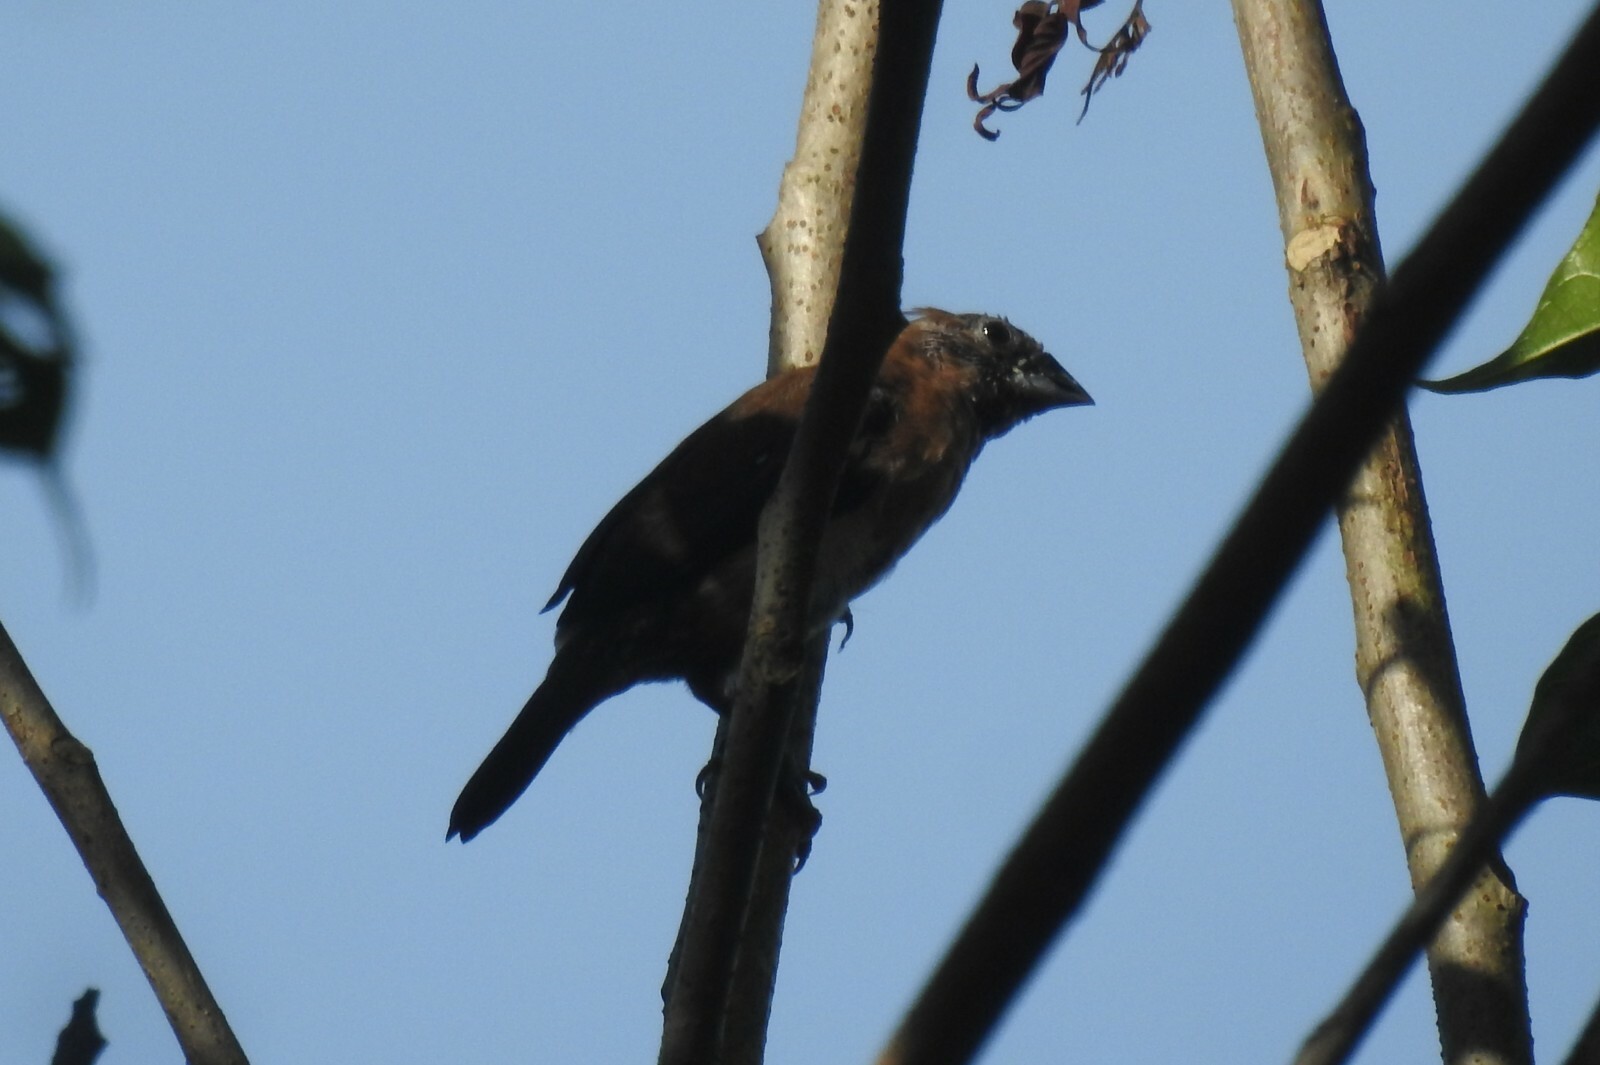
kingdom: Animalia
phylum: Chordata
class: Aves
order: Passeriformes
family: Estrildidae
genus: Lonchura
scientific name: Lonchura striata
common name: White-rumped munia
